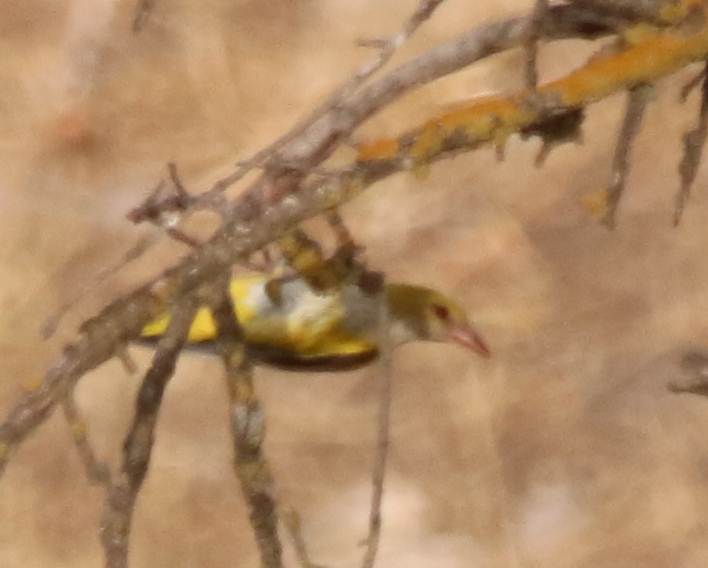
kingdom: Animalia
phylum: Chordata
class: Aves
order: Passeriformes
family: Oriolidae
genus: Oriolus
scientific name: Oriolus oriolus
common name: Eurasian golden oriole
